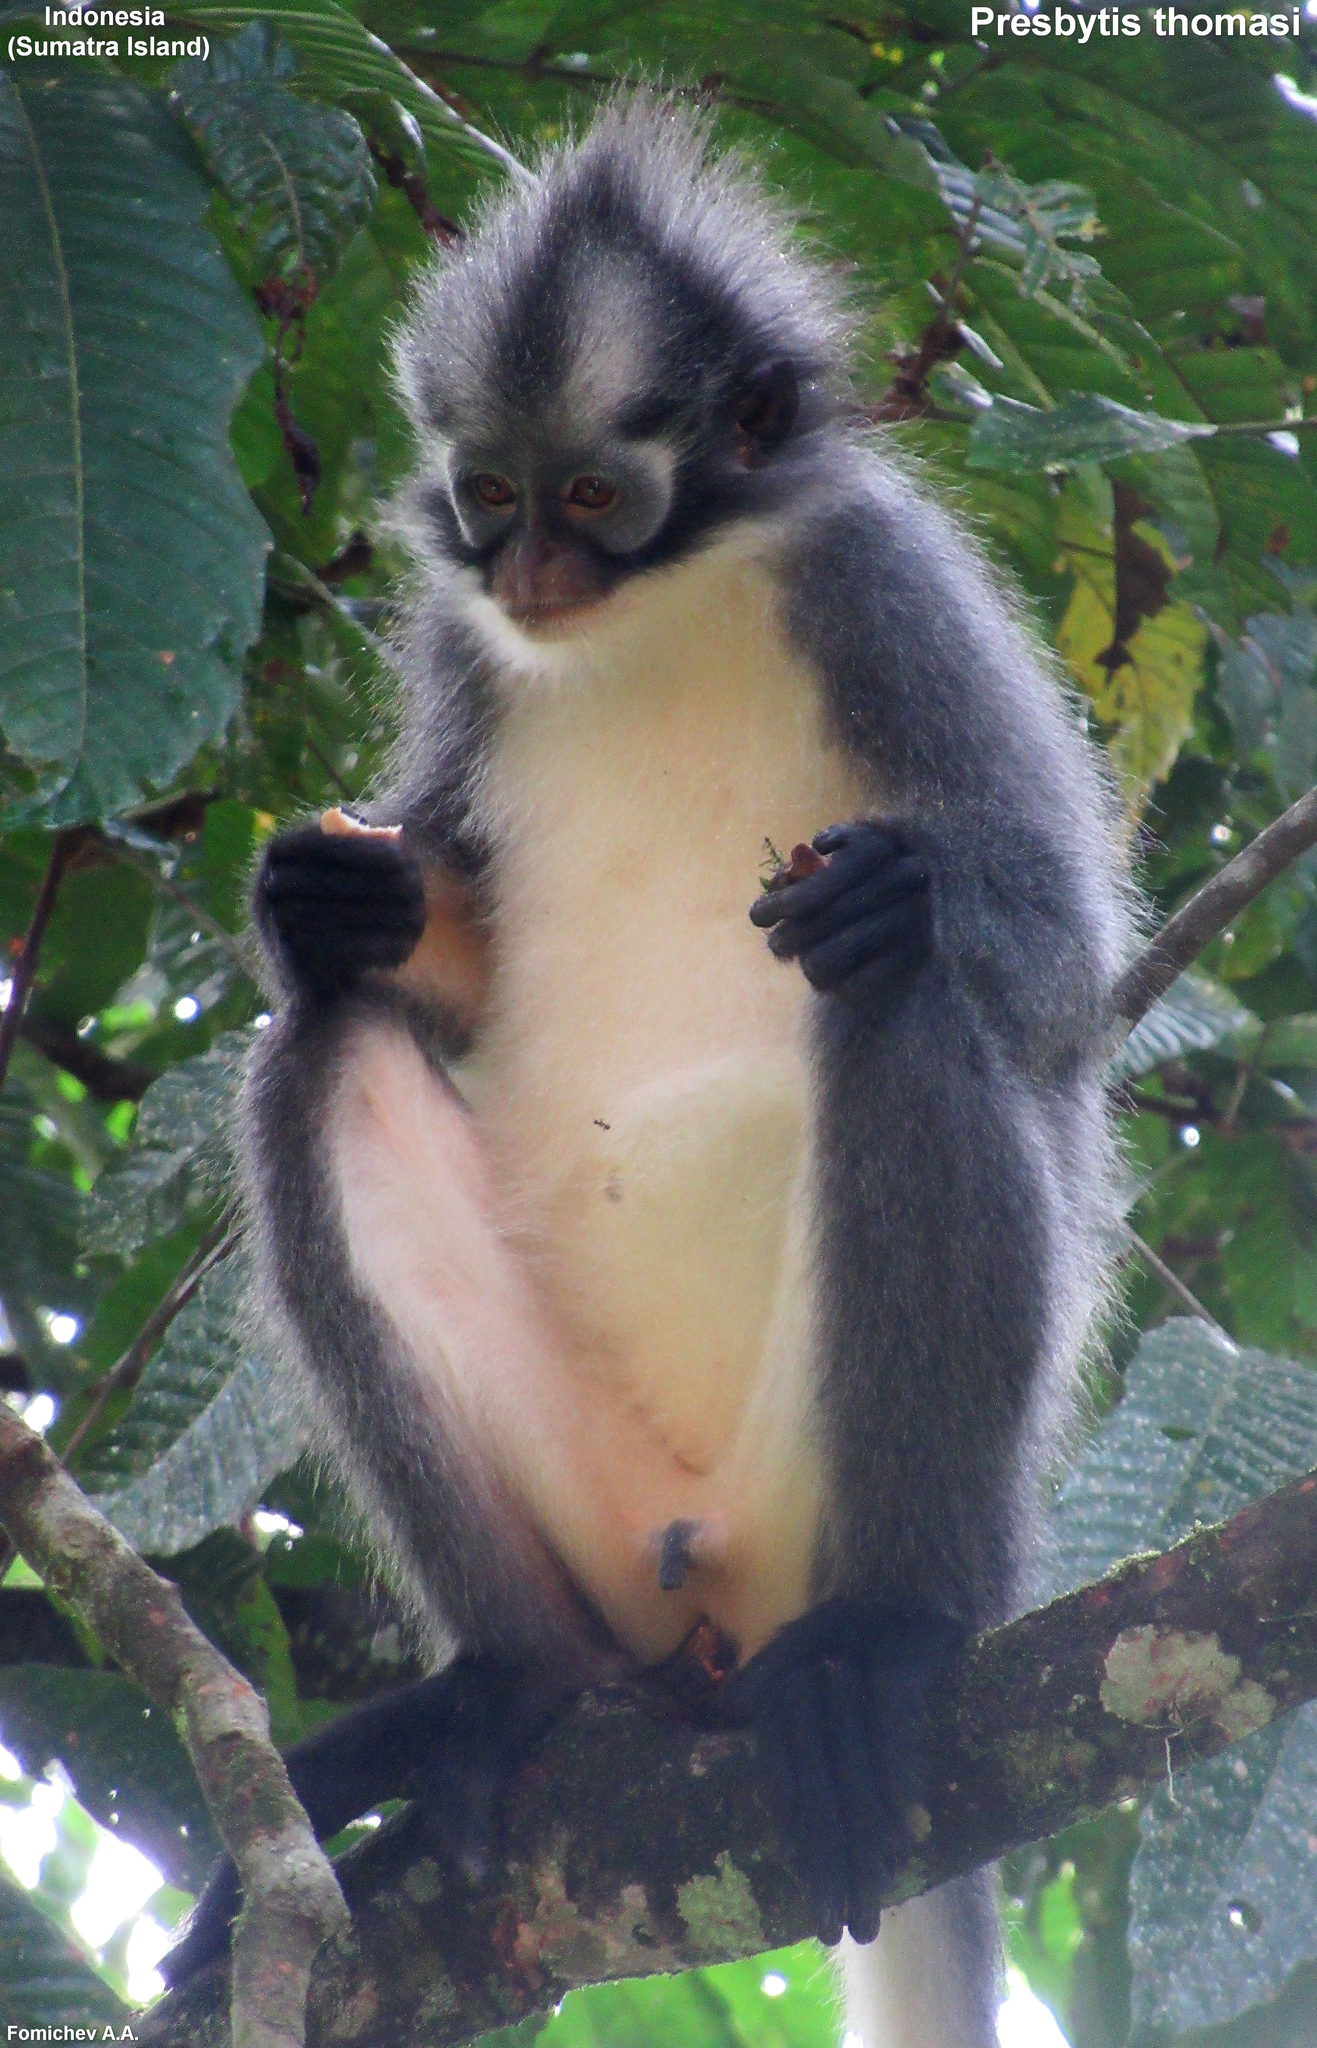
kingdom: Animalia
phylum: Chordata
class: Mammalia
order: Primates
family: Cercopithecidae
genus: Presbytis
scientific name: Presbytis thomasi
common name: Thomas's langur
